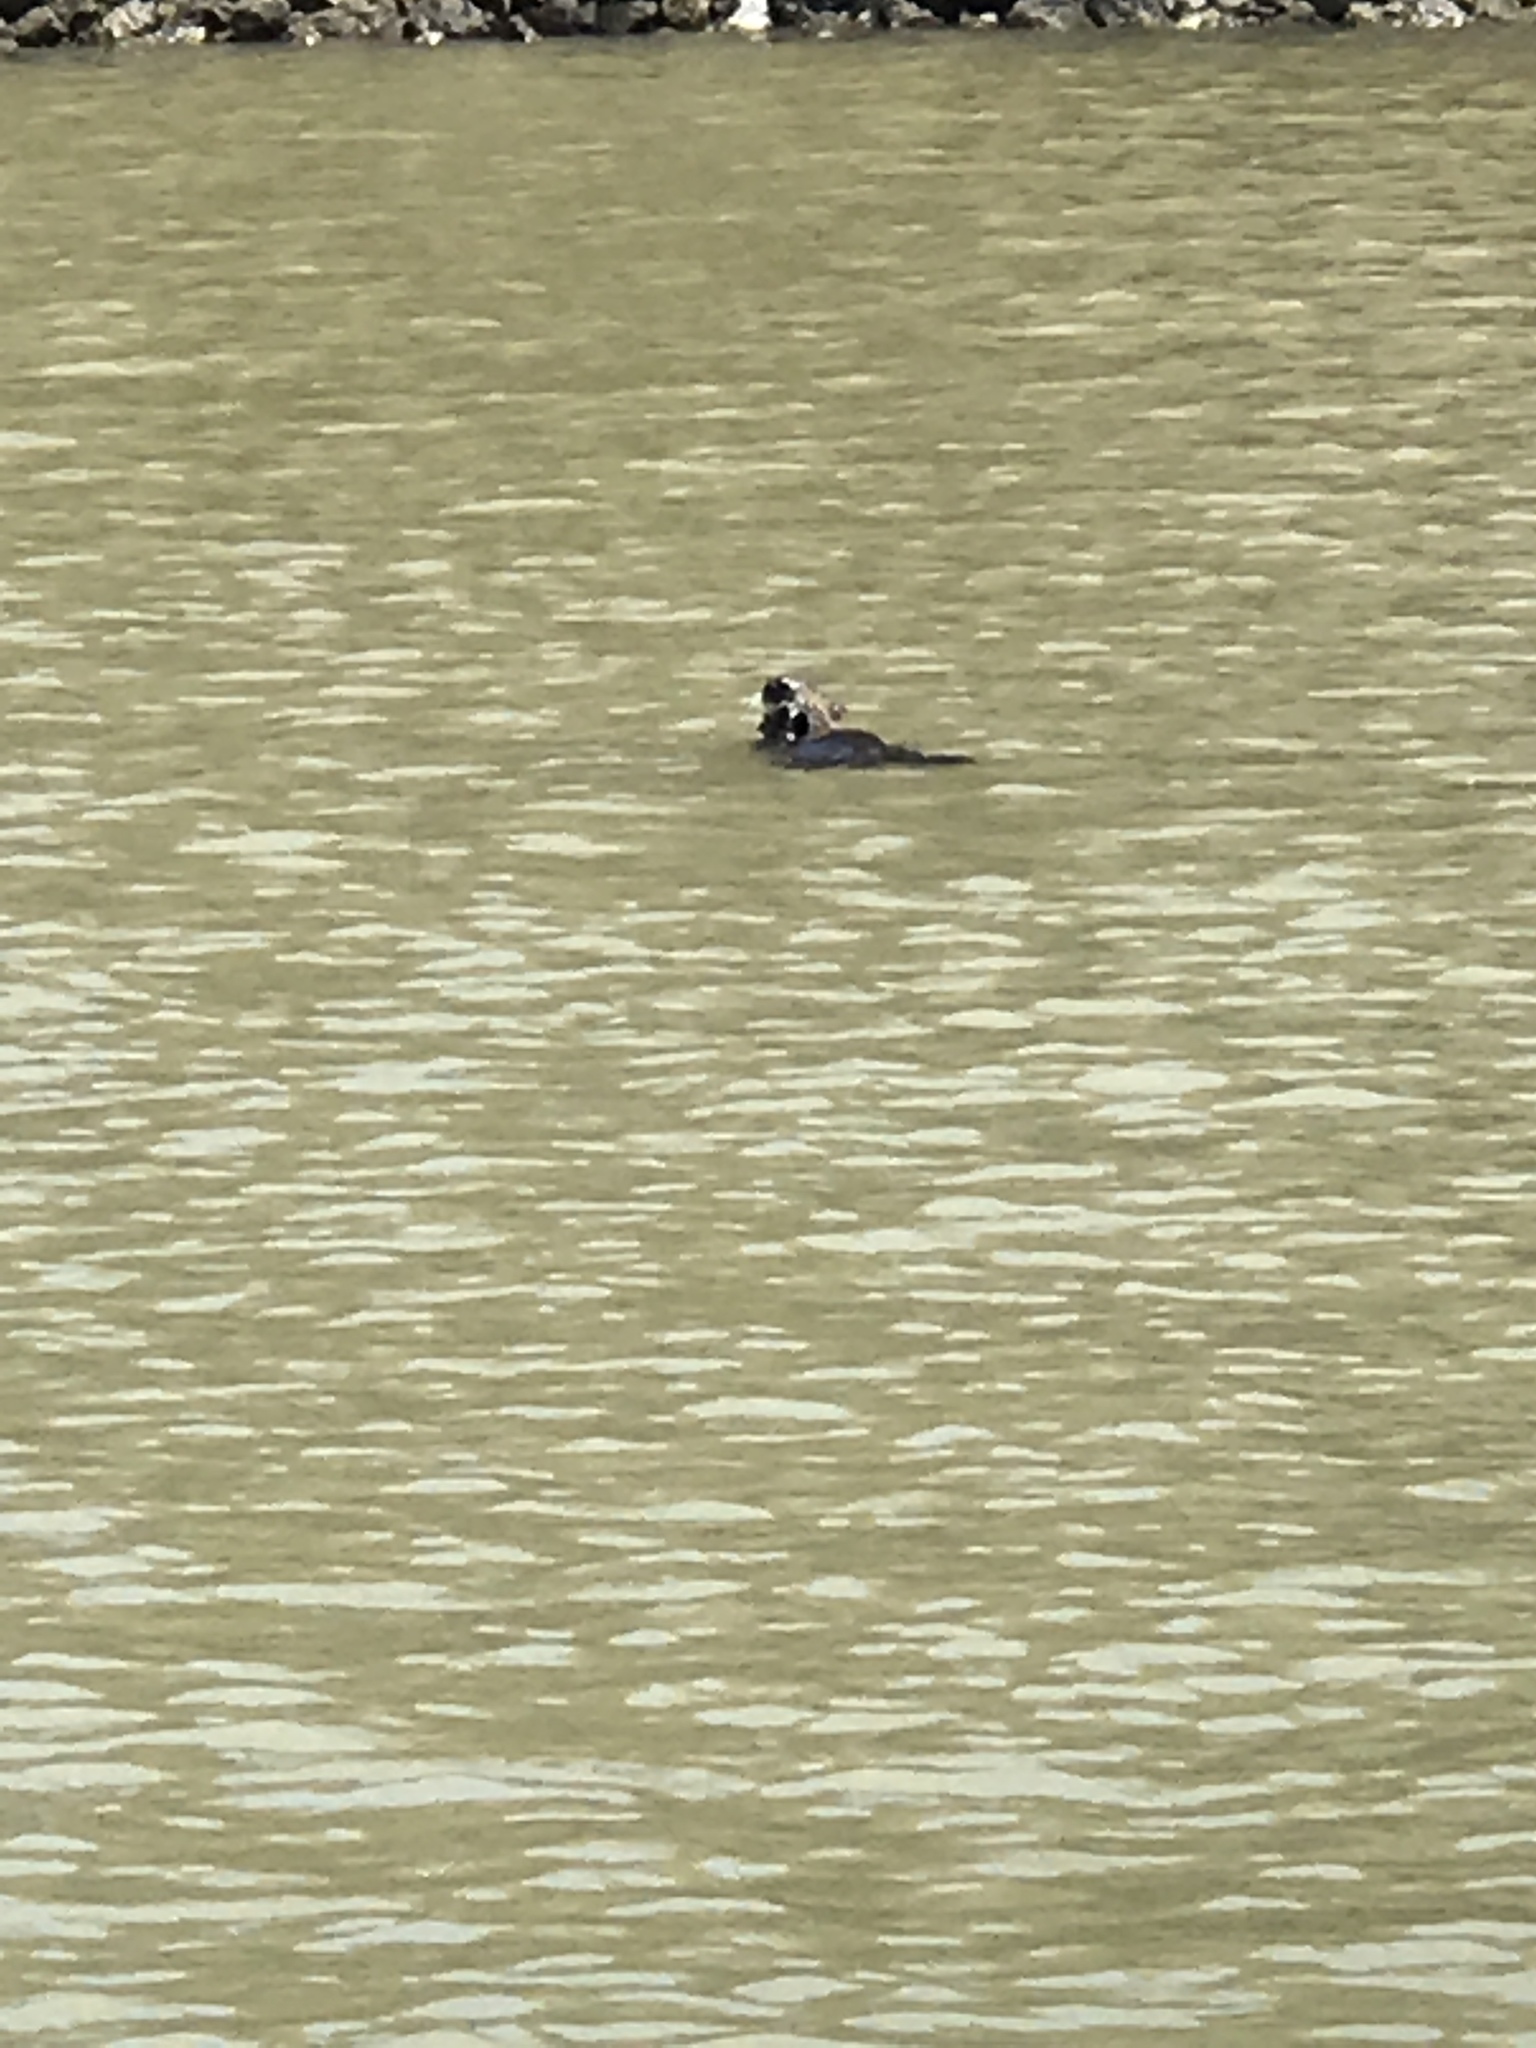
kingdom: Animalia
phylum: Chordata
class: Mammalia
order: Carnivora
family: Mustelidae
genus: Enhydra
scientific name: Enhydra lutris
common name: Sea otter
